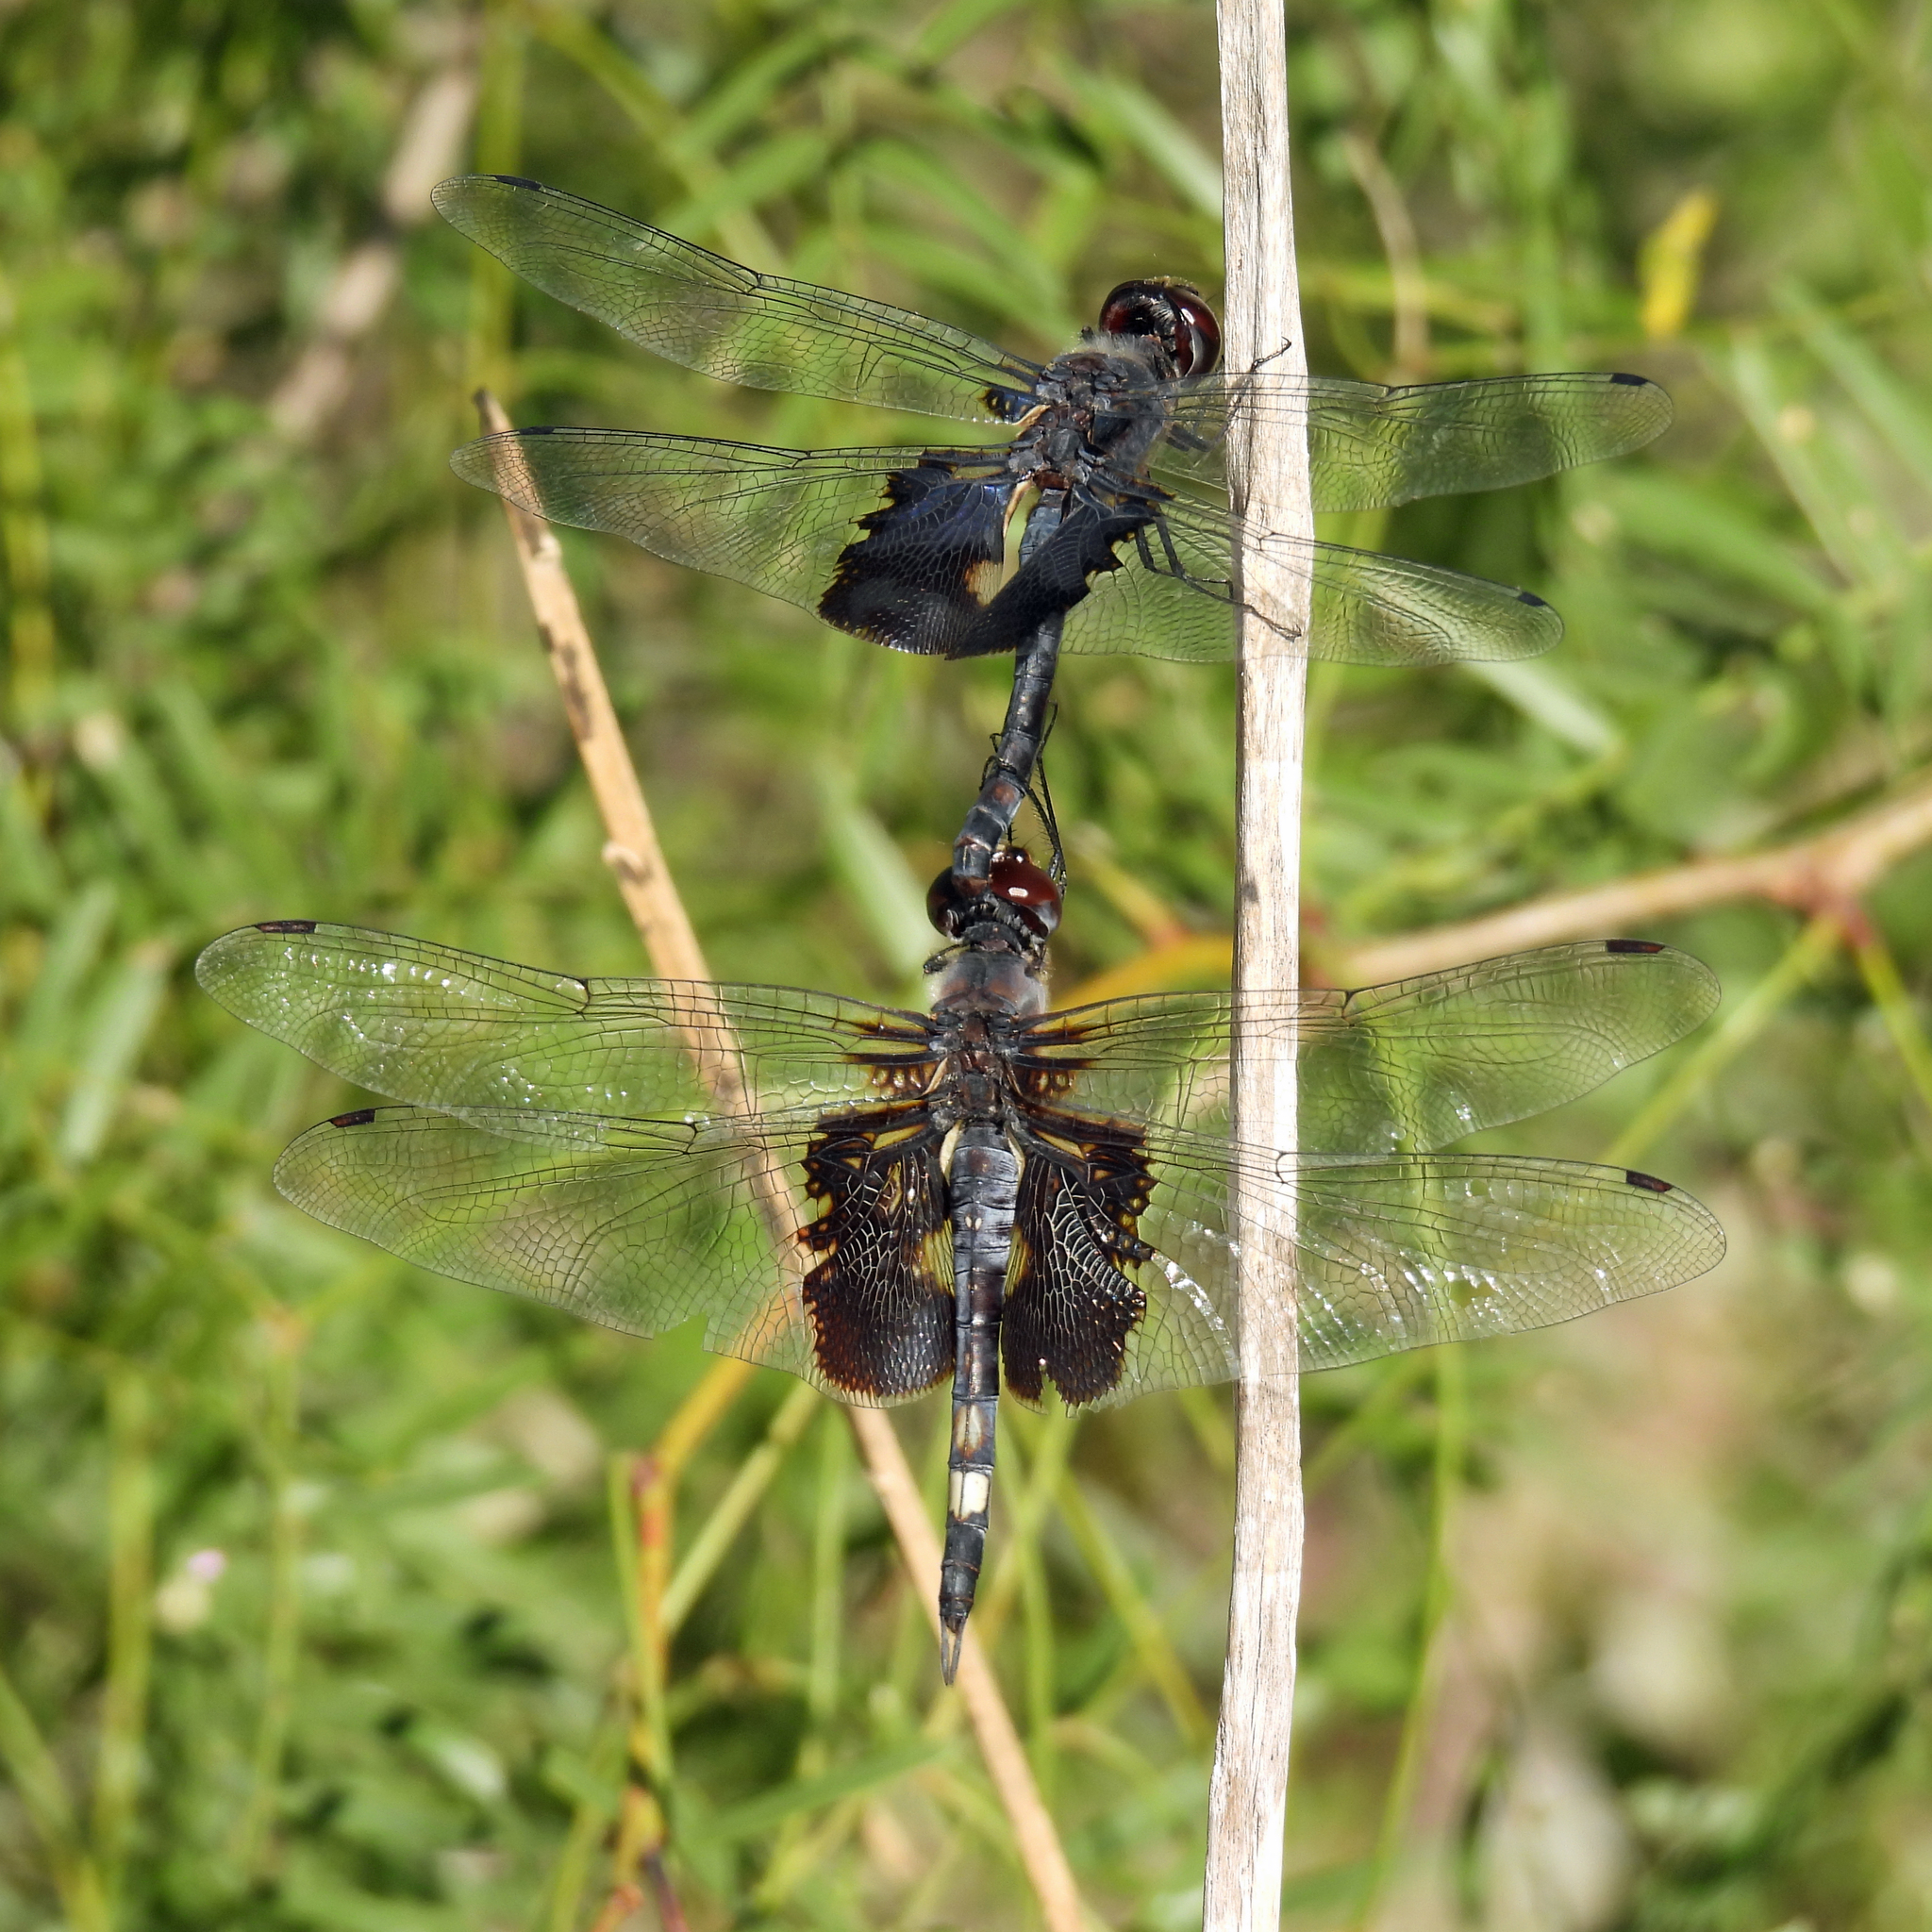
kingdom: Animalia
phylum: Arthropoda
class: Insecta
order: Odonata
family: Libellulidae
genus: Tramea
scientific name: Tramea lacerata
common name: Black saddlebags
